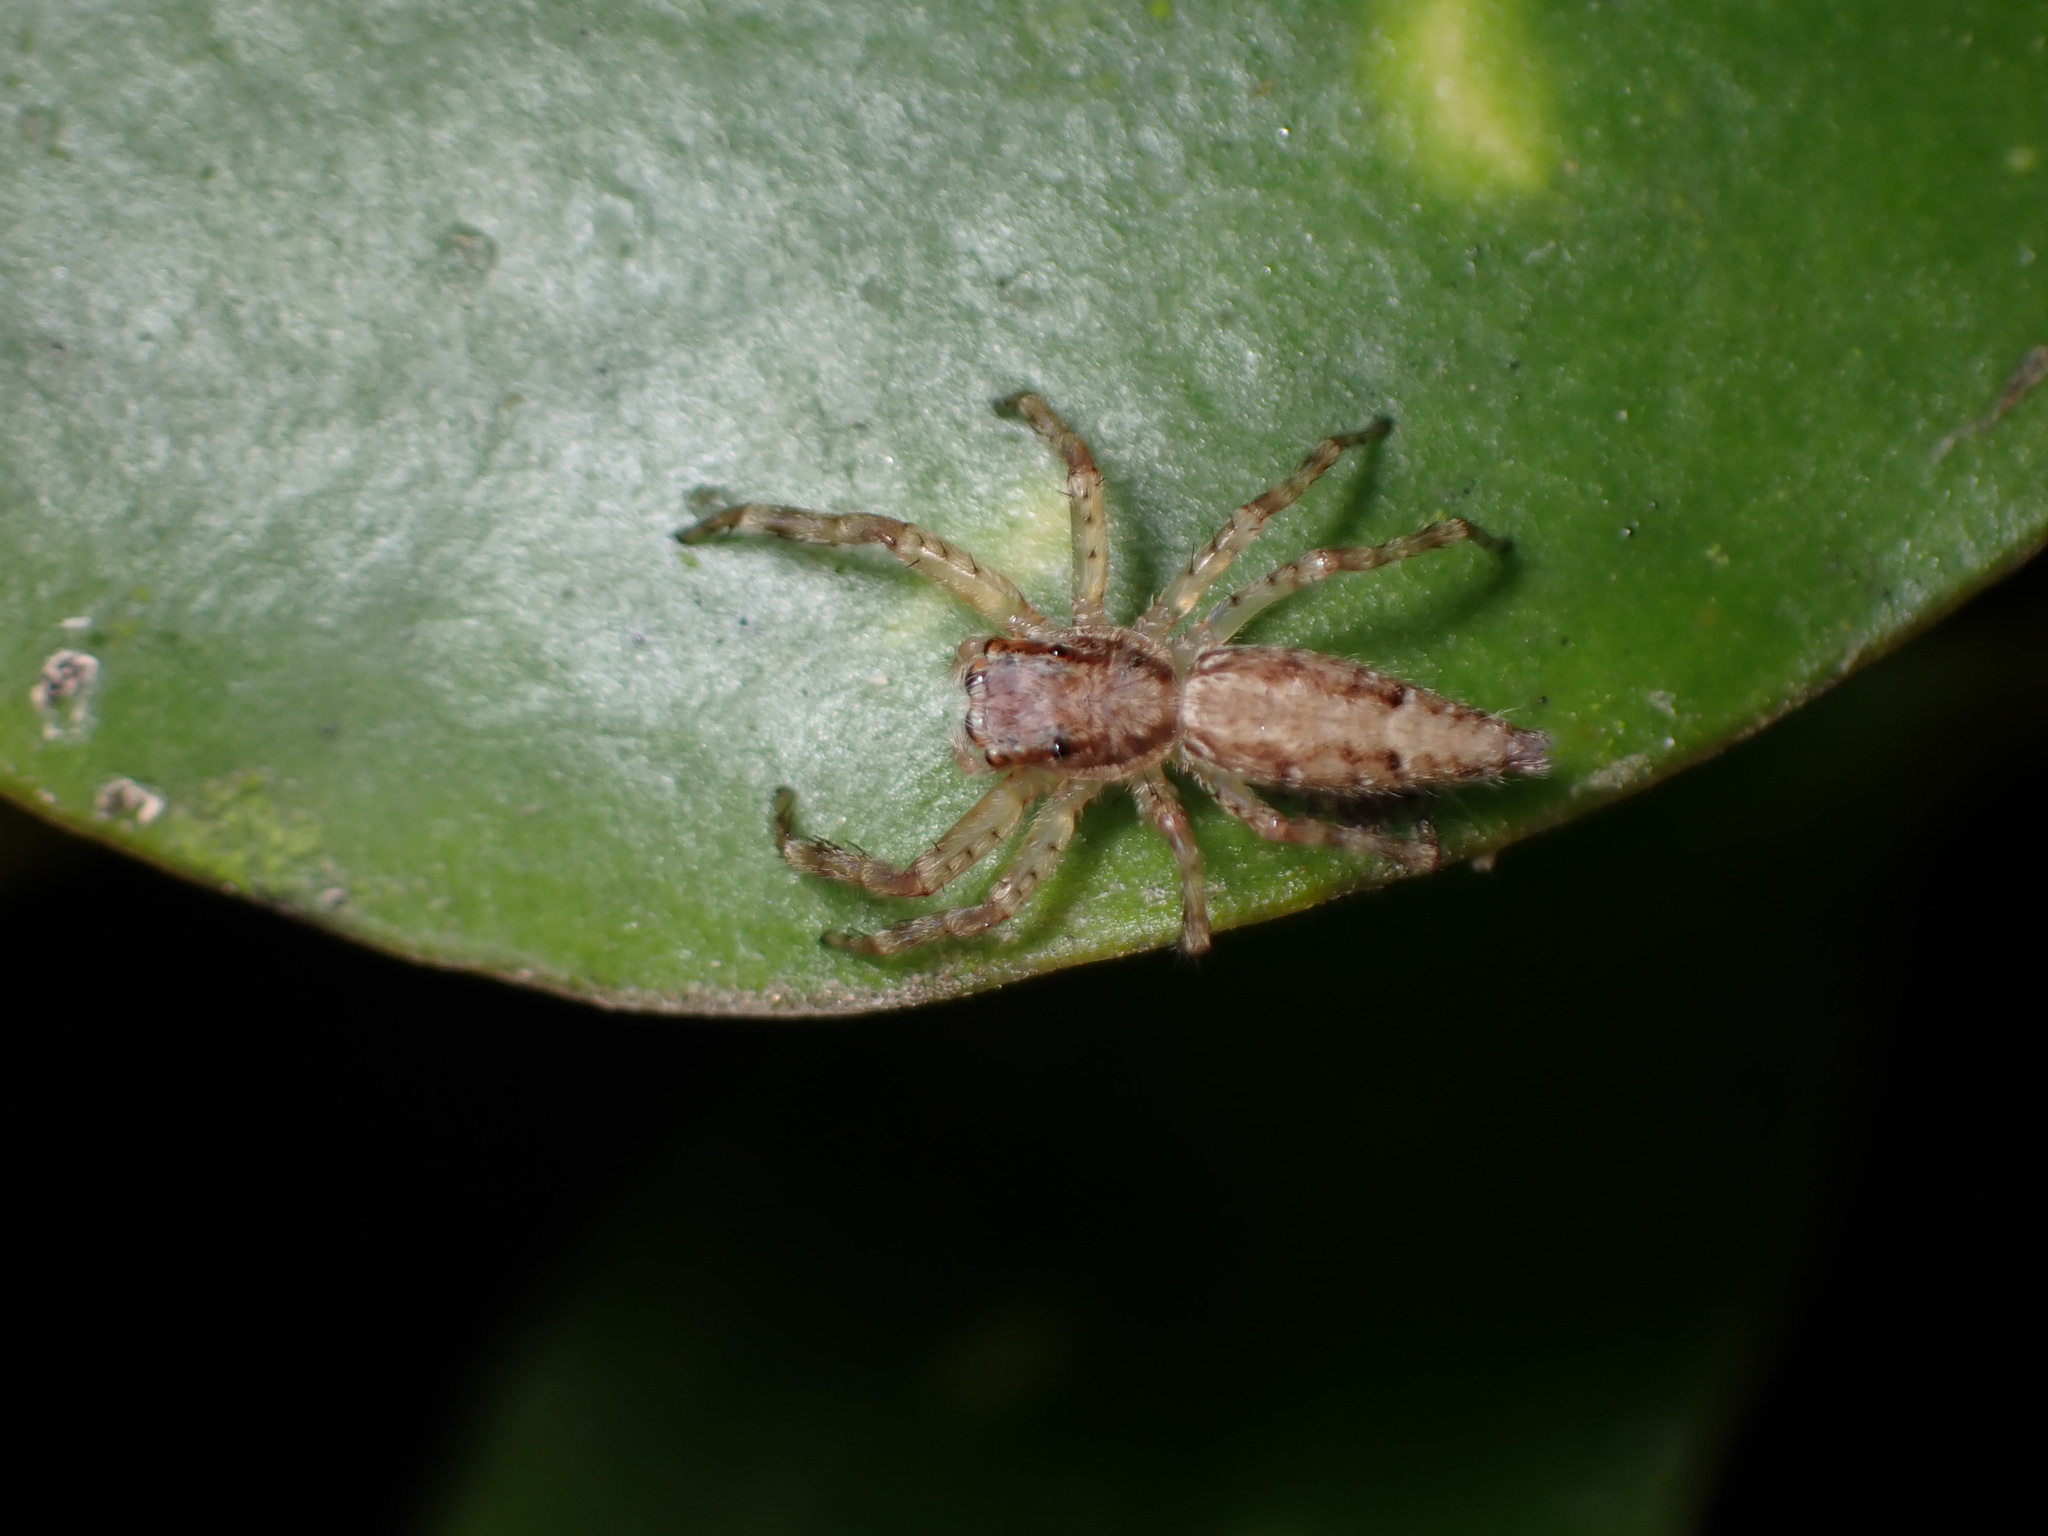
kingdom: Animalia
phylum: Arthropoda
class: Arachnida
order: Araneae
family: Salticidae
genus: Helpis
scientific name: Helpis minitabunda
